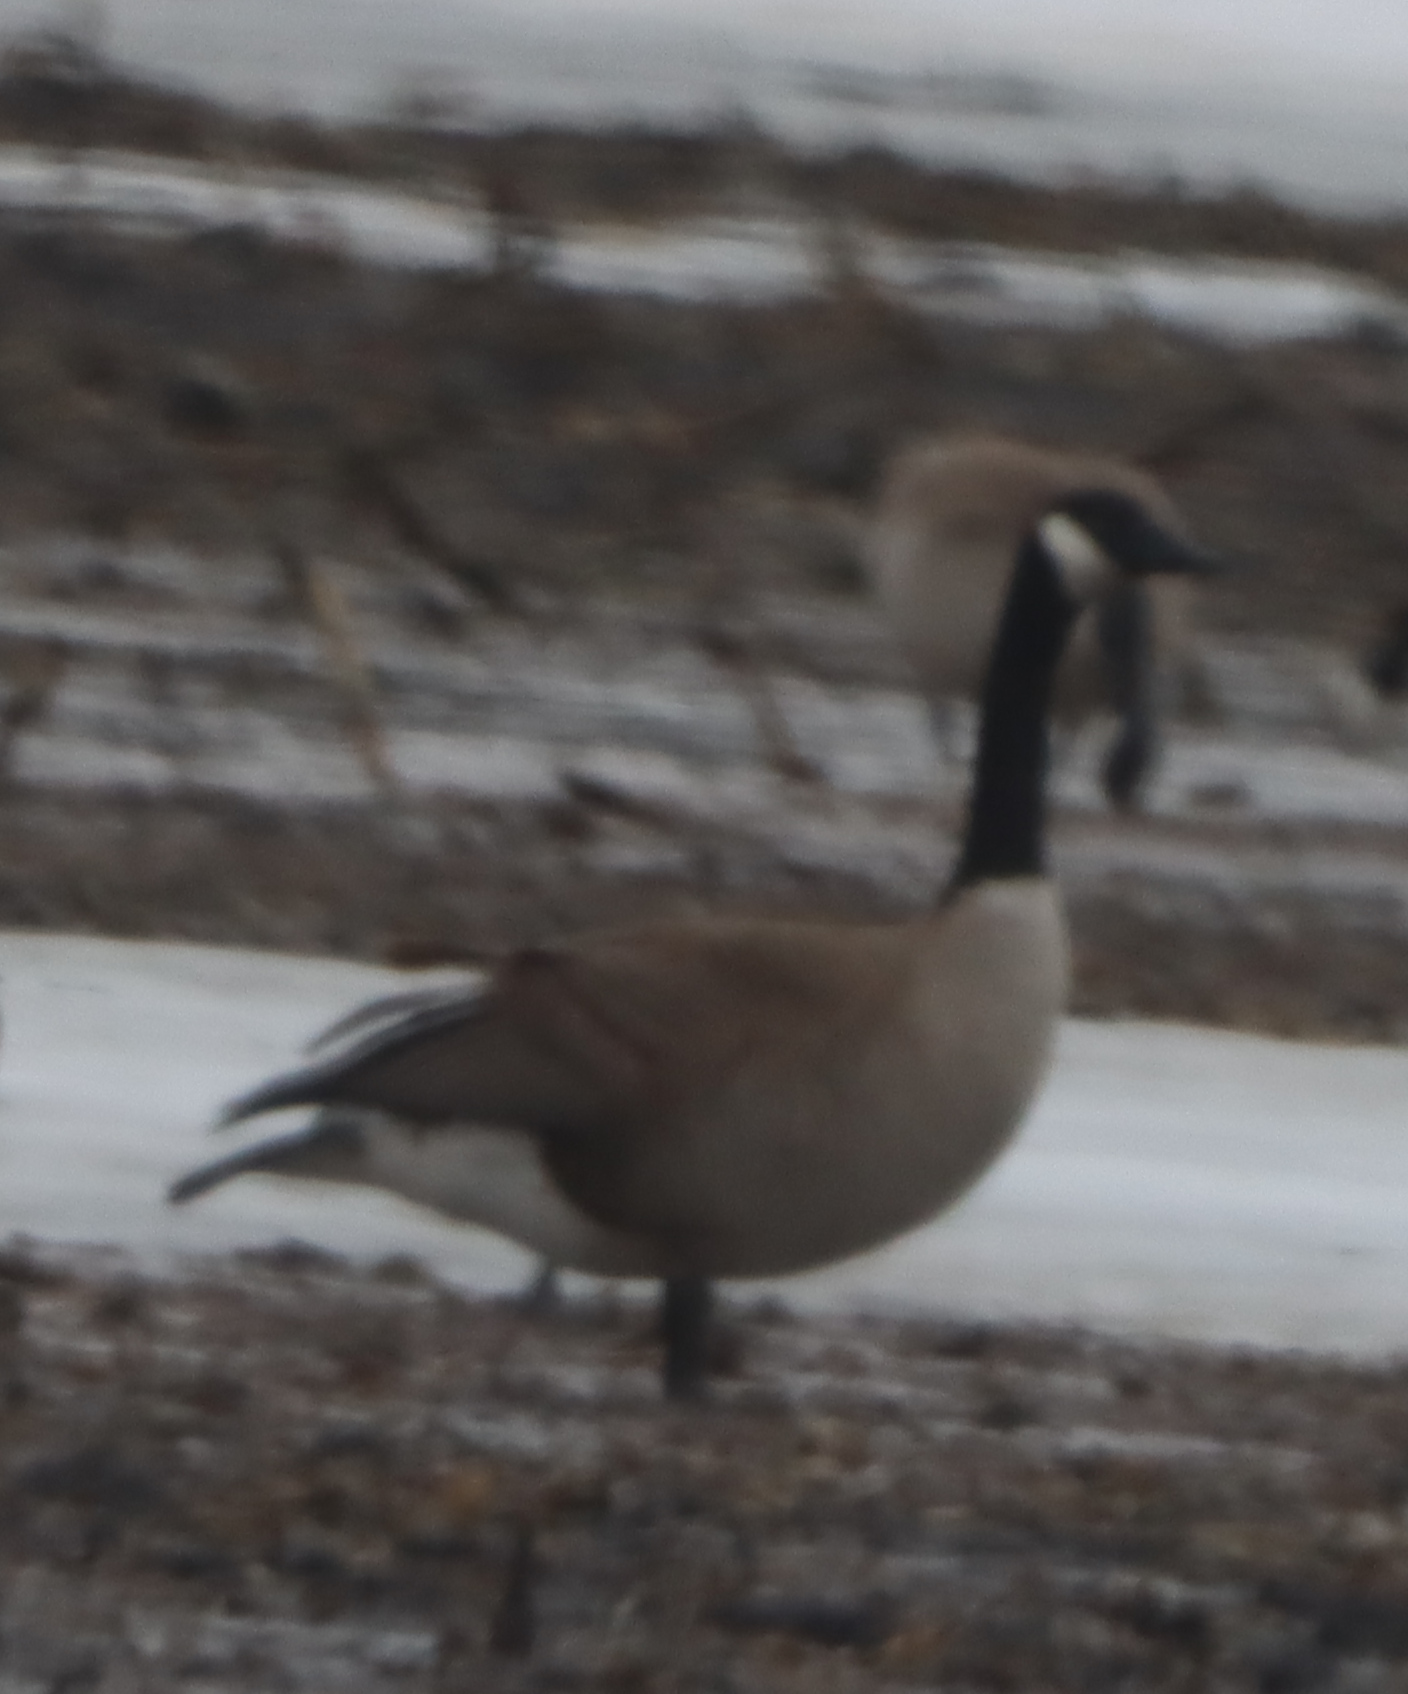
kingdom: Animalia
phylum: Chordata
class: Aves
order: Anseriformes
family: Anatidae
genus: Branta
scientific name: Branta canadensis
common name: Canada goose
